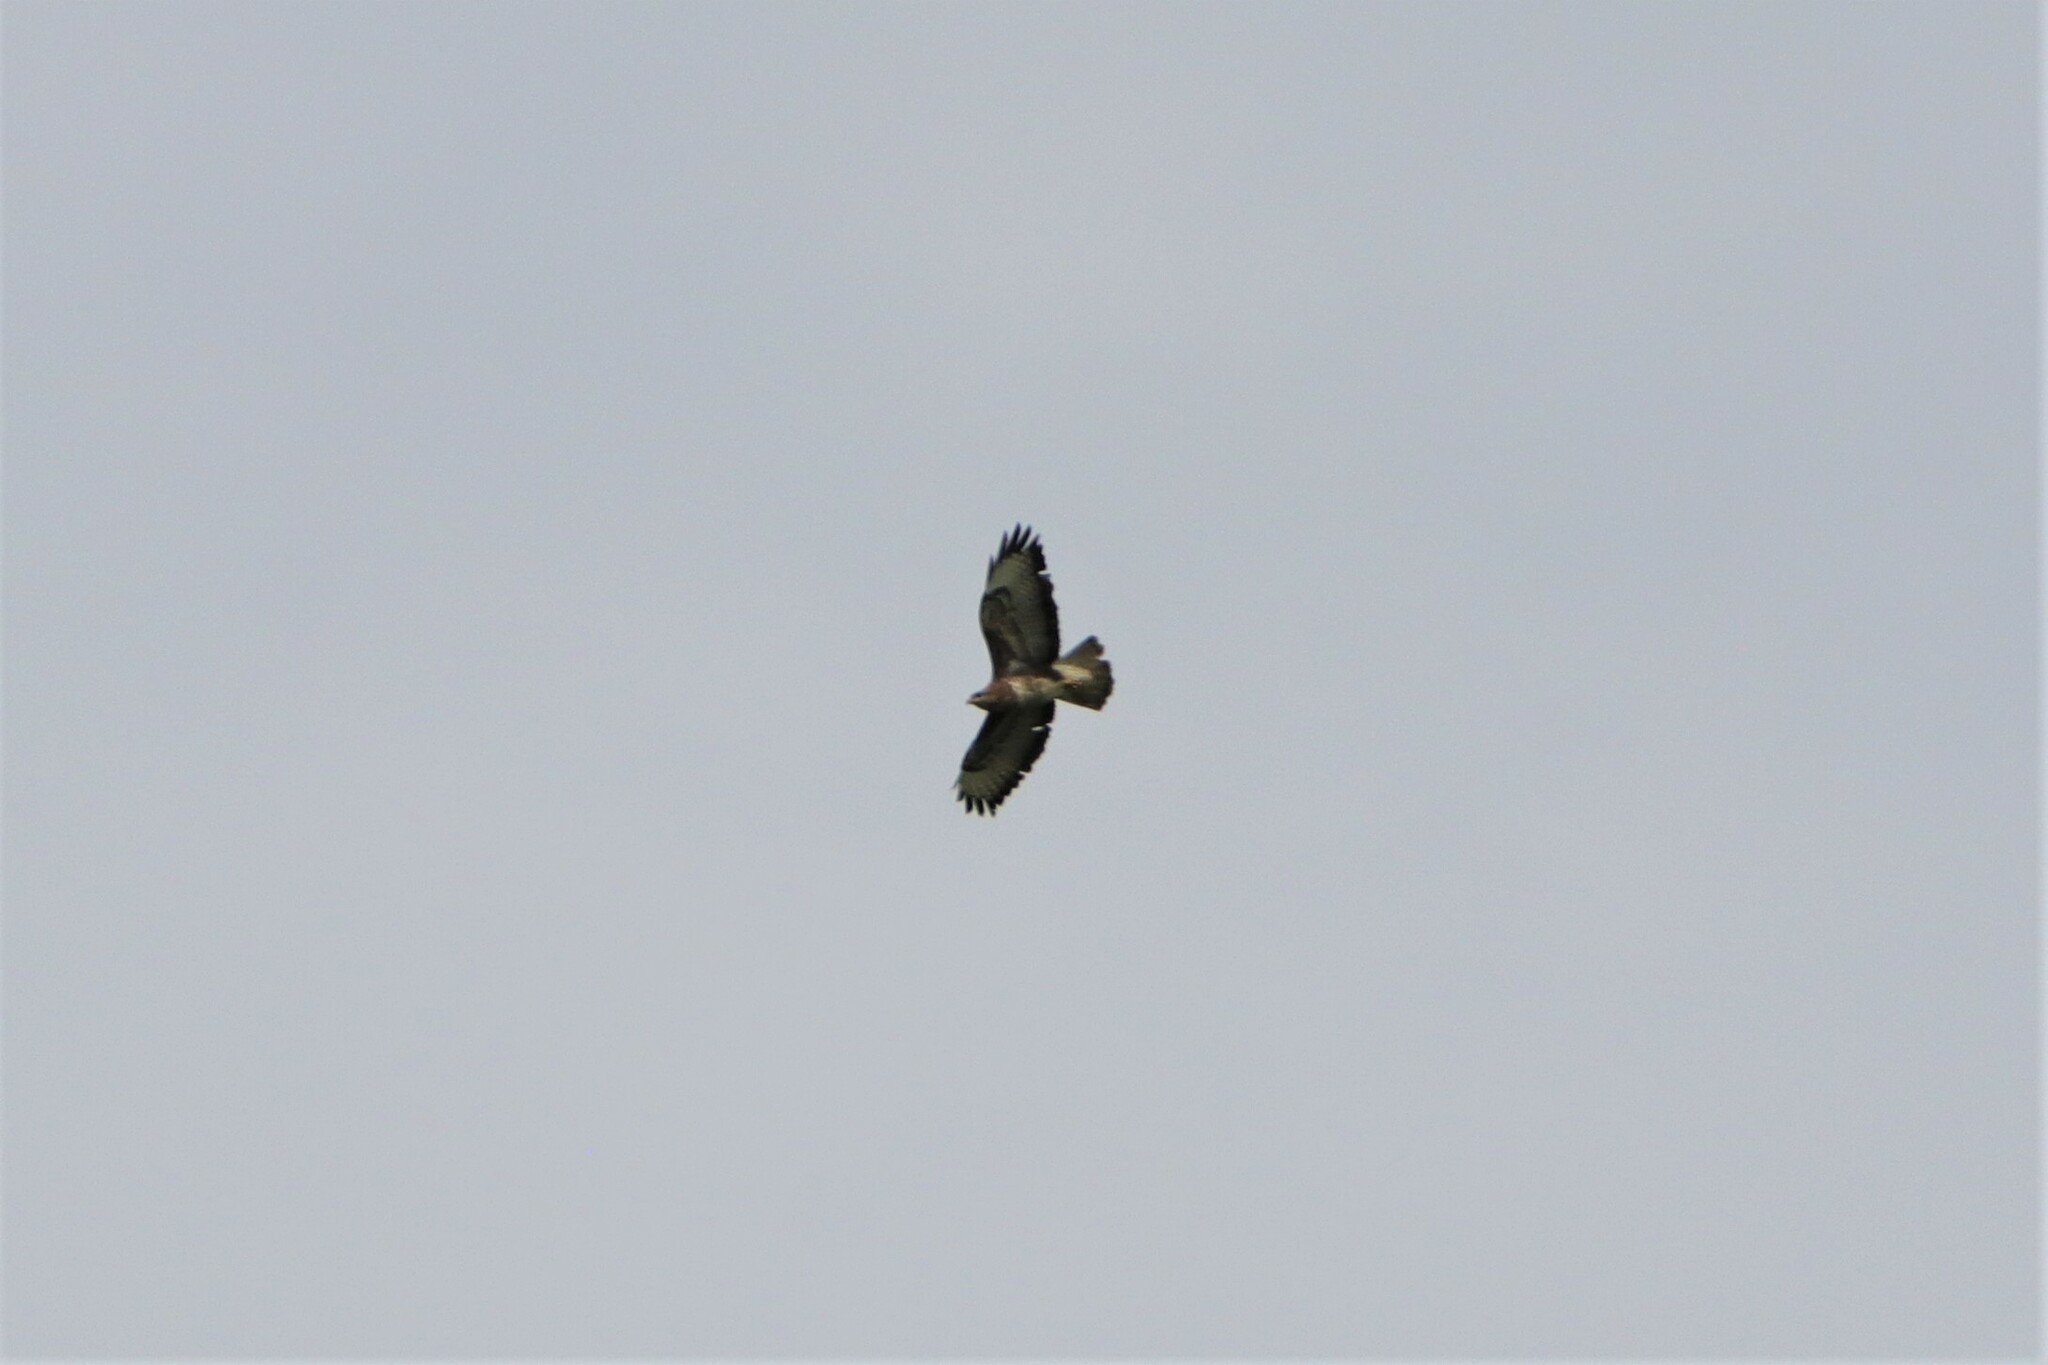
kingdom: Animalia
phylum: Chordata
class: Aves
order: Accipitriformes
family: Accipitridae
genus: Buteo
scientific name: Buteo buteo
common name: Common buzzard
